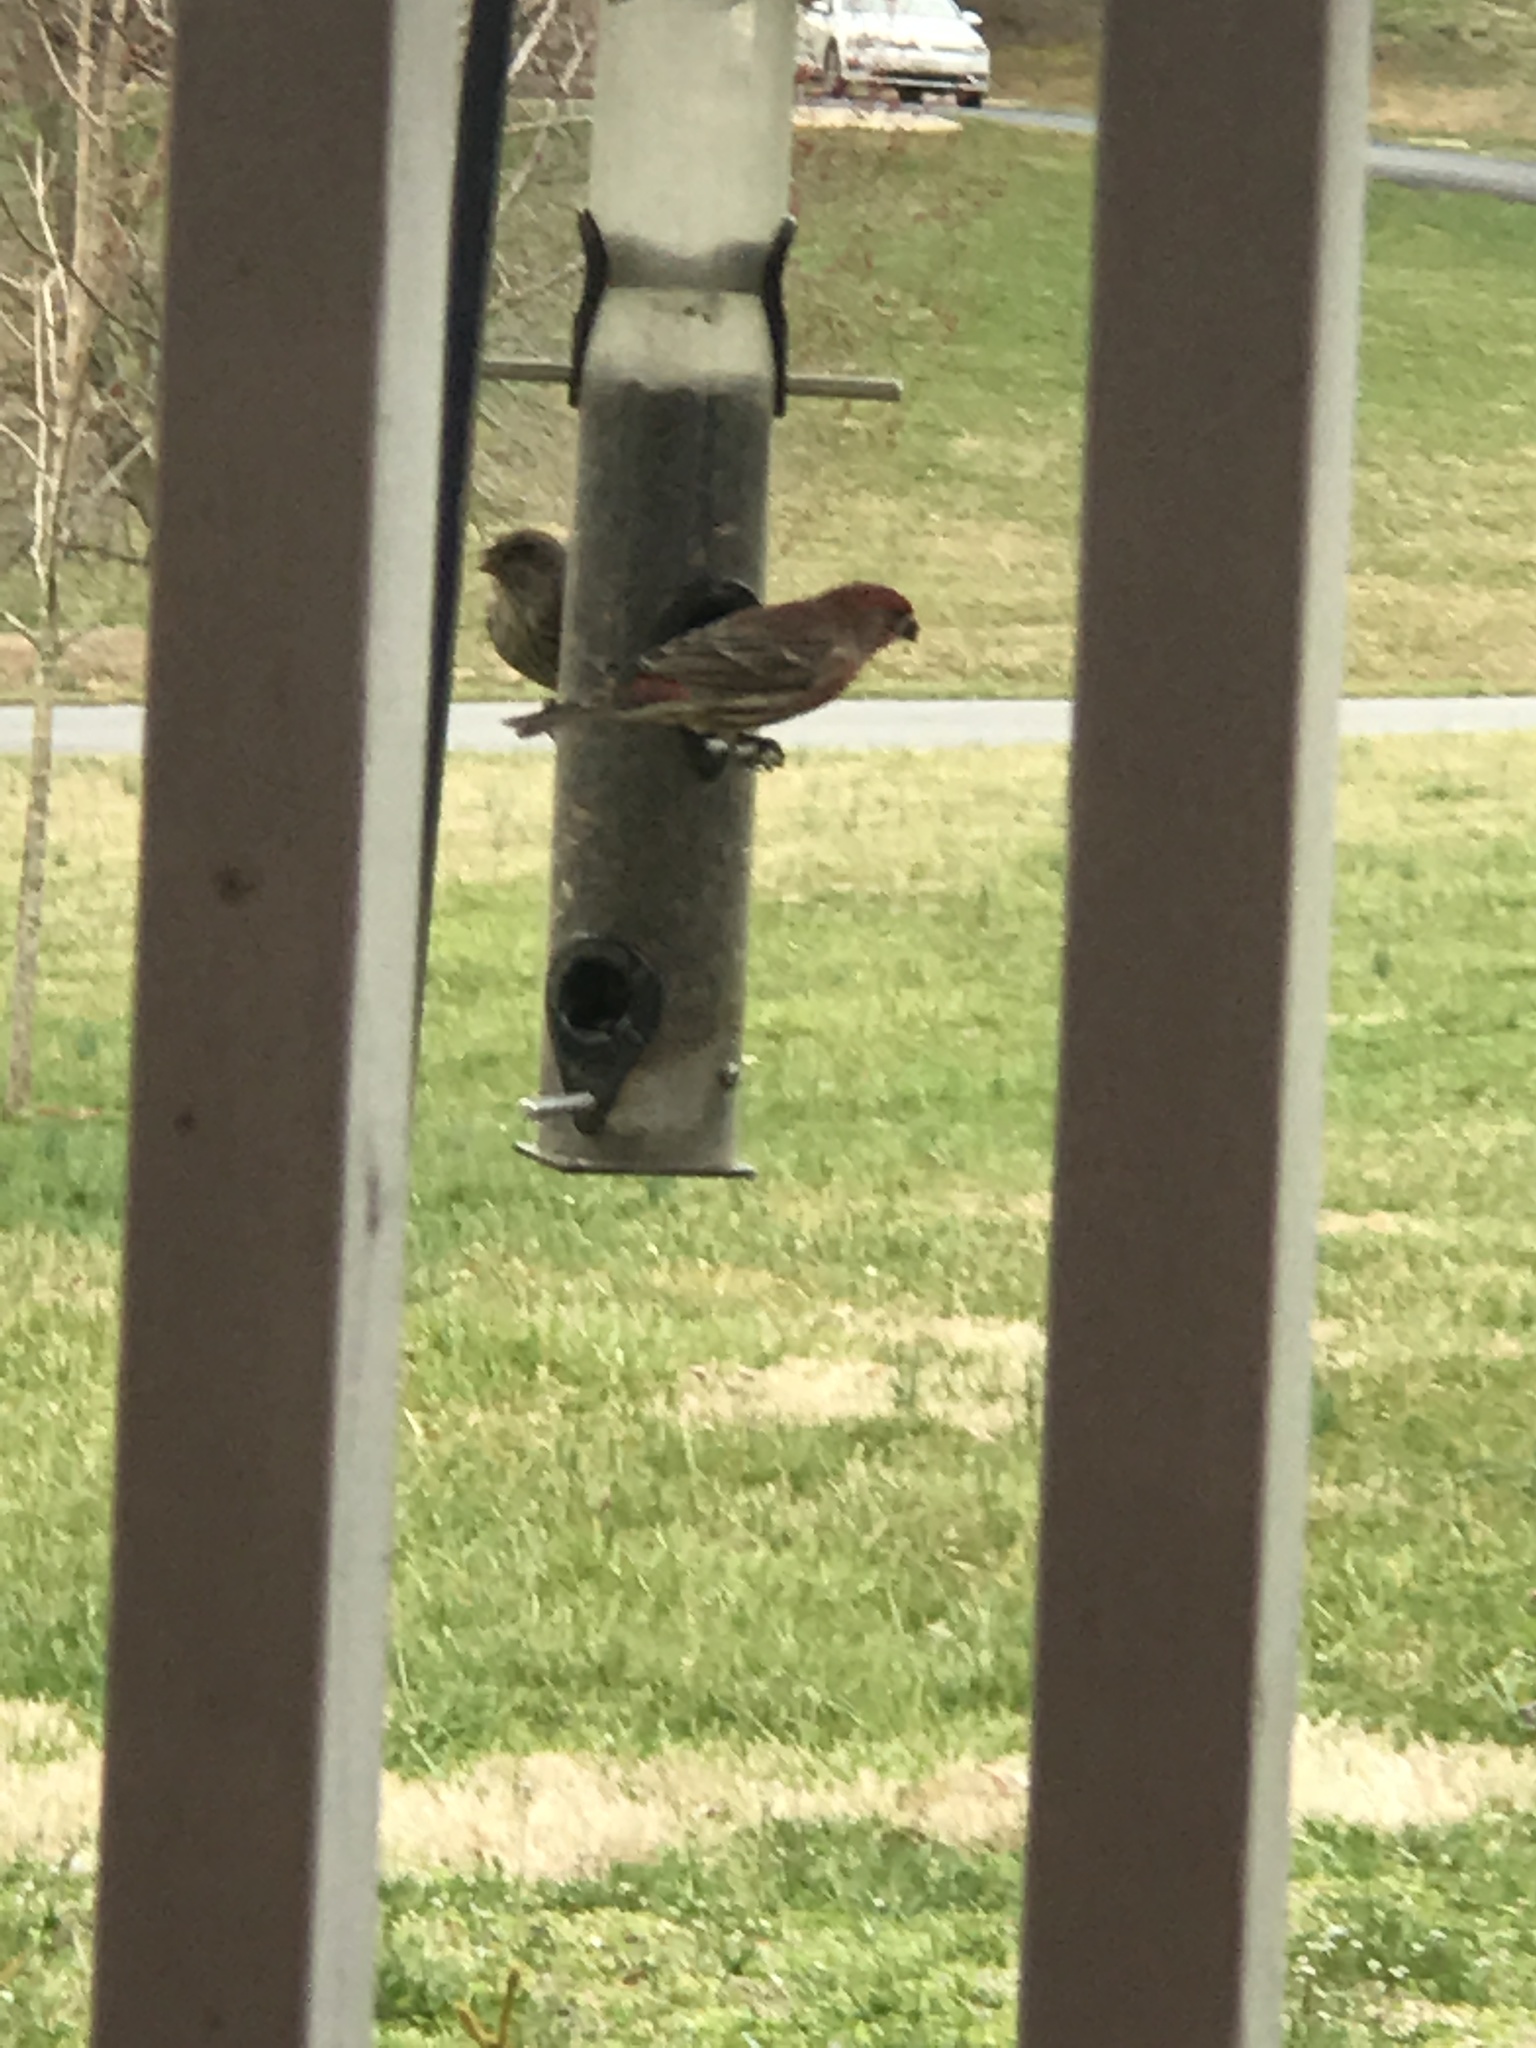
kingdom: Animalia
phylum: Chordata
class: Aves
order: Passeriformes
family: Fringillidae
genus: Haemorhous
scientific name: Haemorhous mexicanus
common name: House finch
